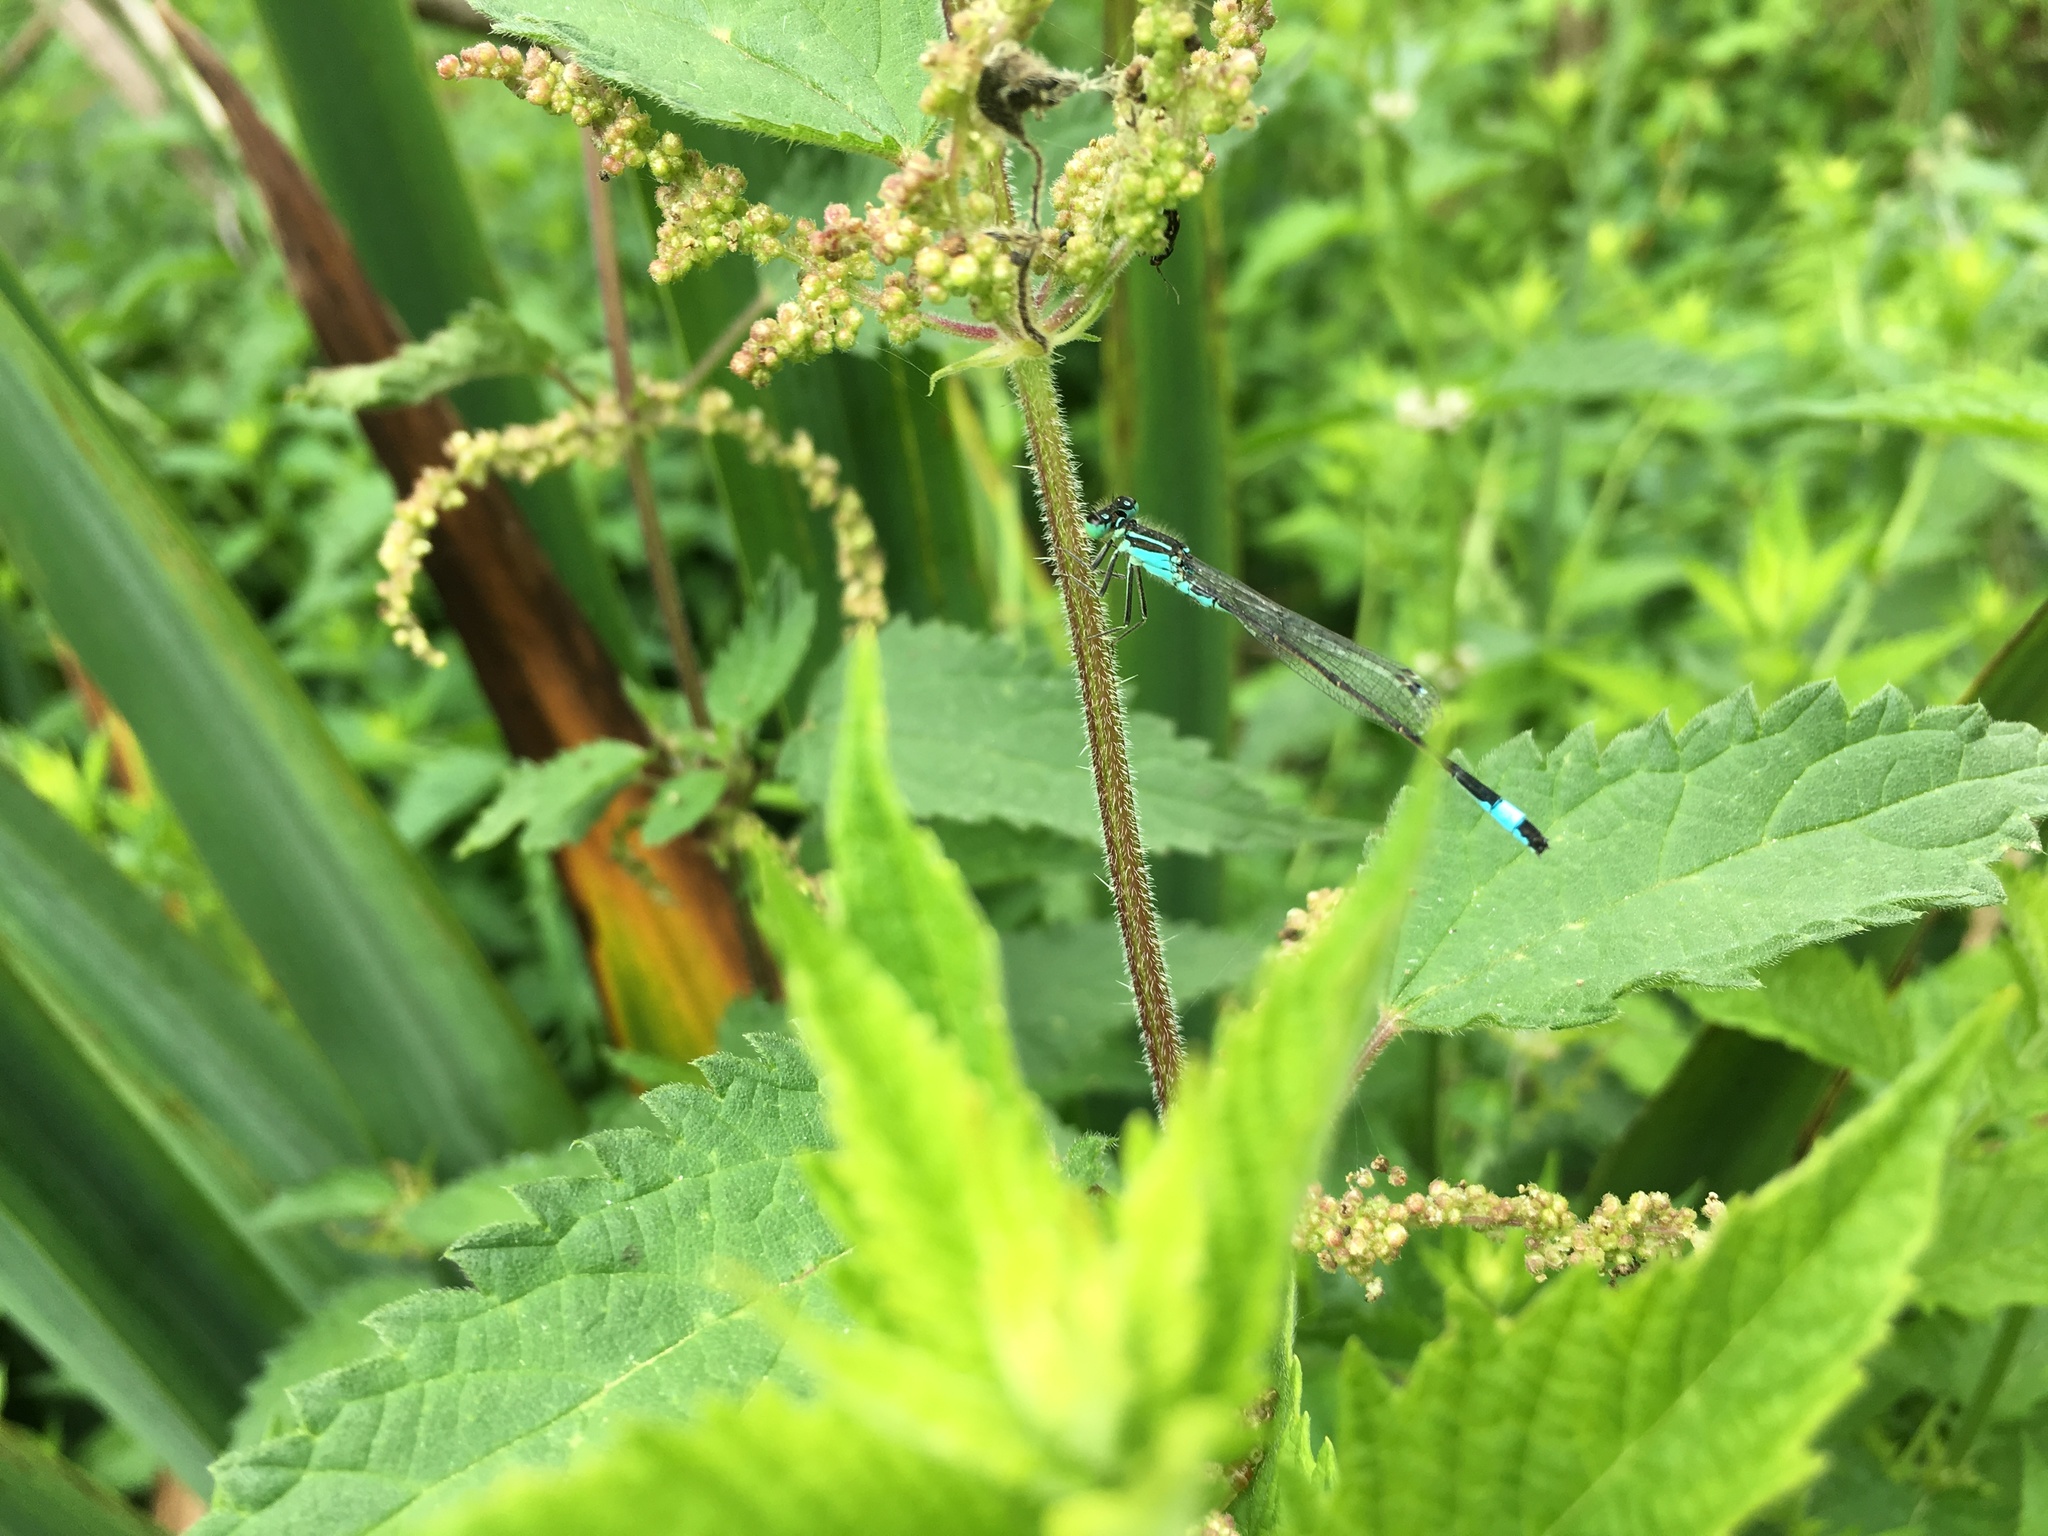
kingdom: Animalia
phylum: Arthropoda
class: Insecta
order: Odonata
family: Coenagrionidae
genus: Ischnura
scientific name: Ischnura elegans
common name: Blue-tailed damselfly
